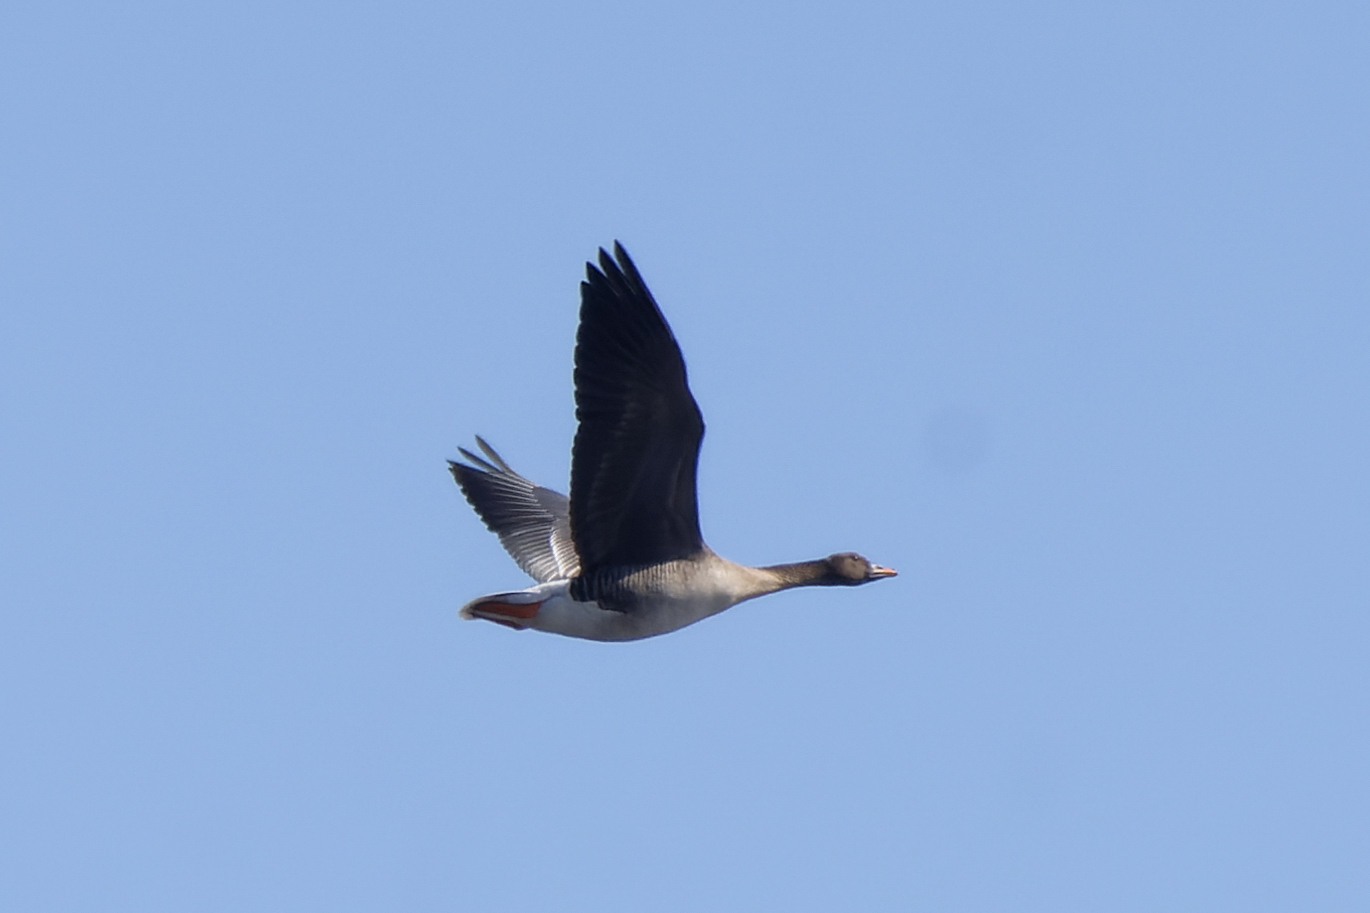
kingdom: Animalia
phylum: Chordata
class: Aves
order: Anseriformes
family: Anatidae
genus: Anser
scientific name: Anser fabalis
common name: Bean goose
